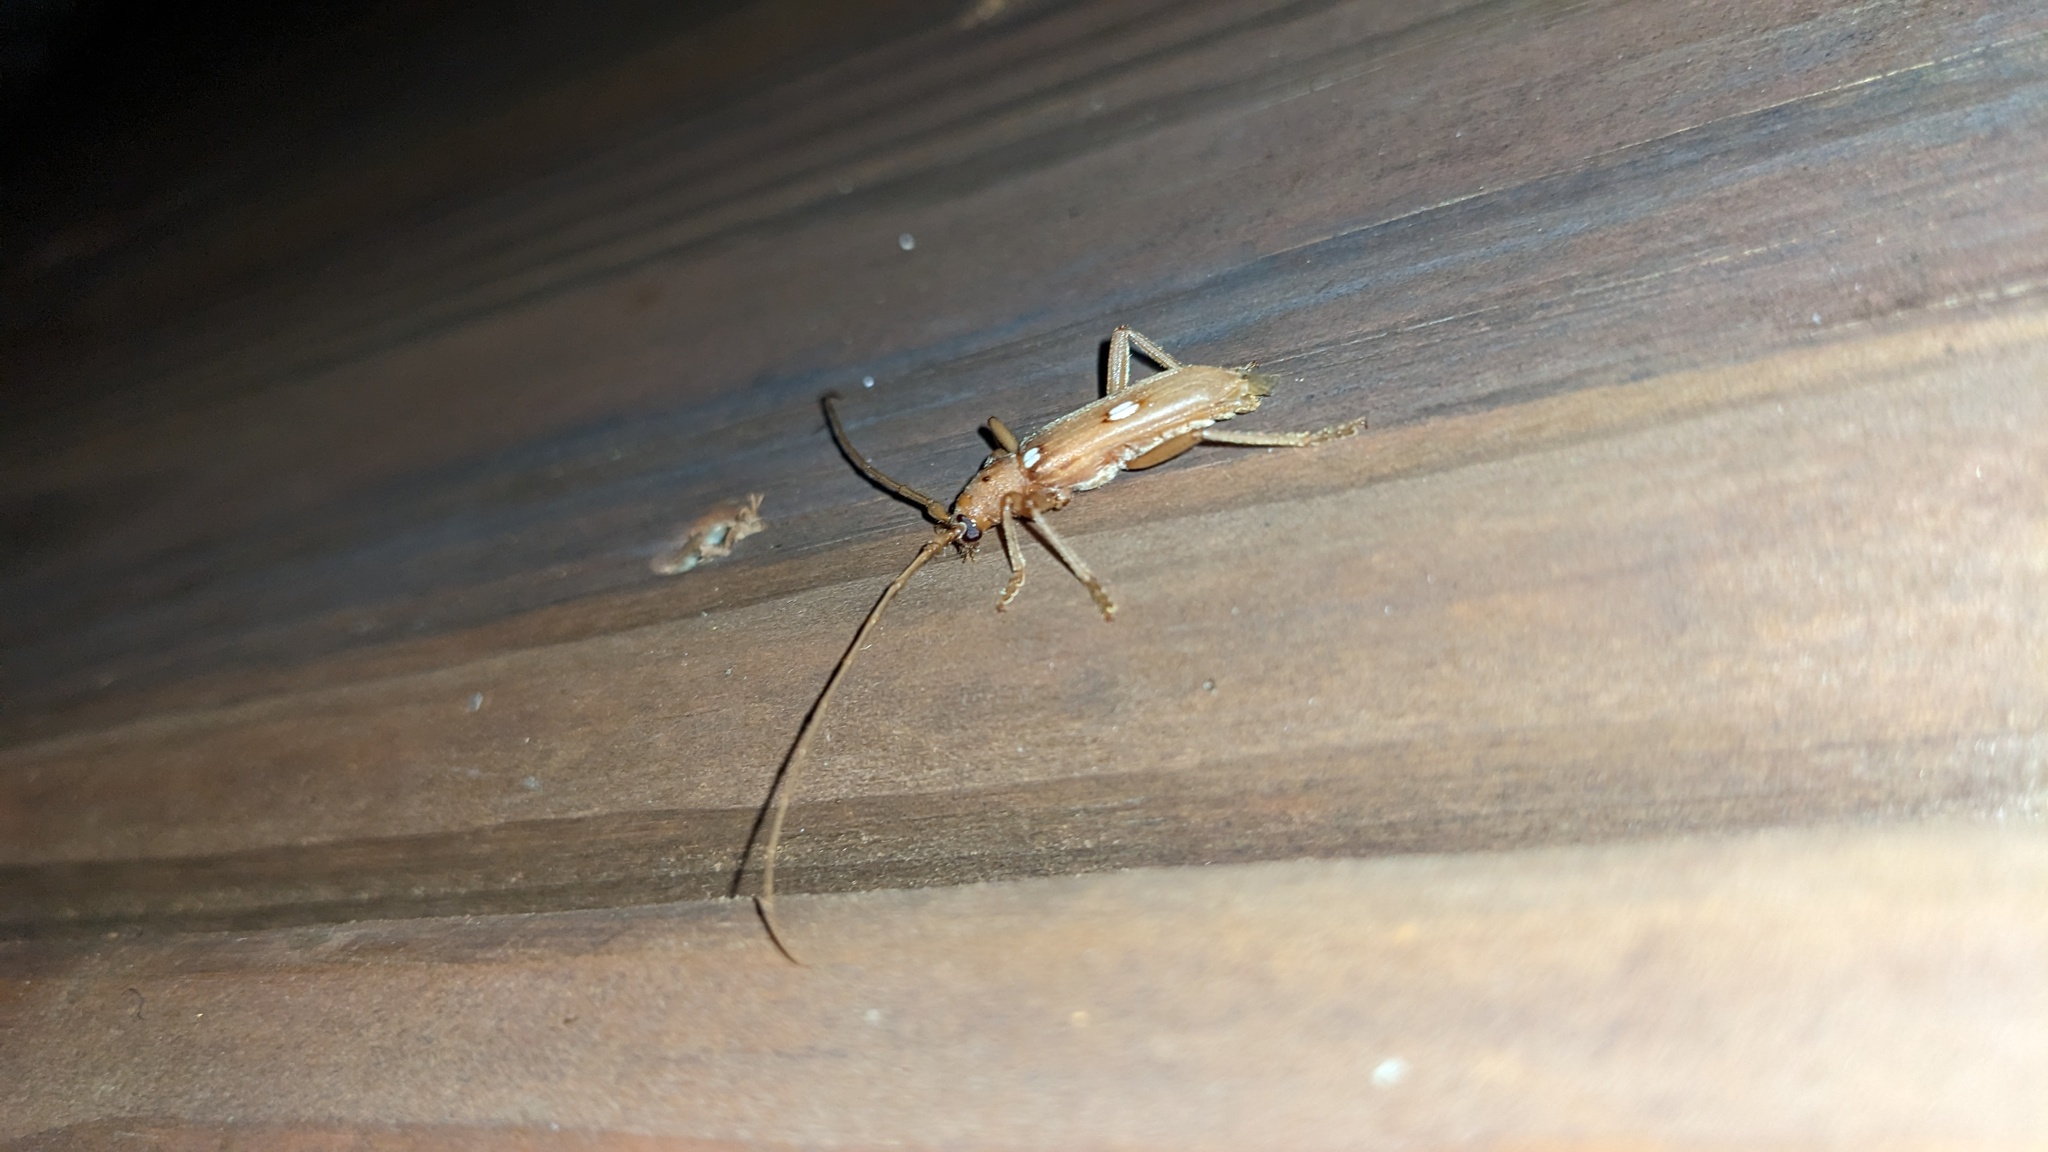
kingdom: Animalia
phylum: Arthropoda
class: Insecta
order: Coleoptera
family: Cerambycidae
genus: Eburia
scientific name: Eburia quadrigeminata
